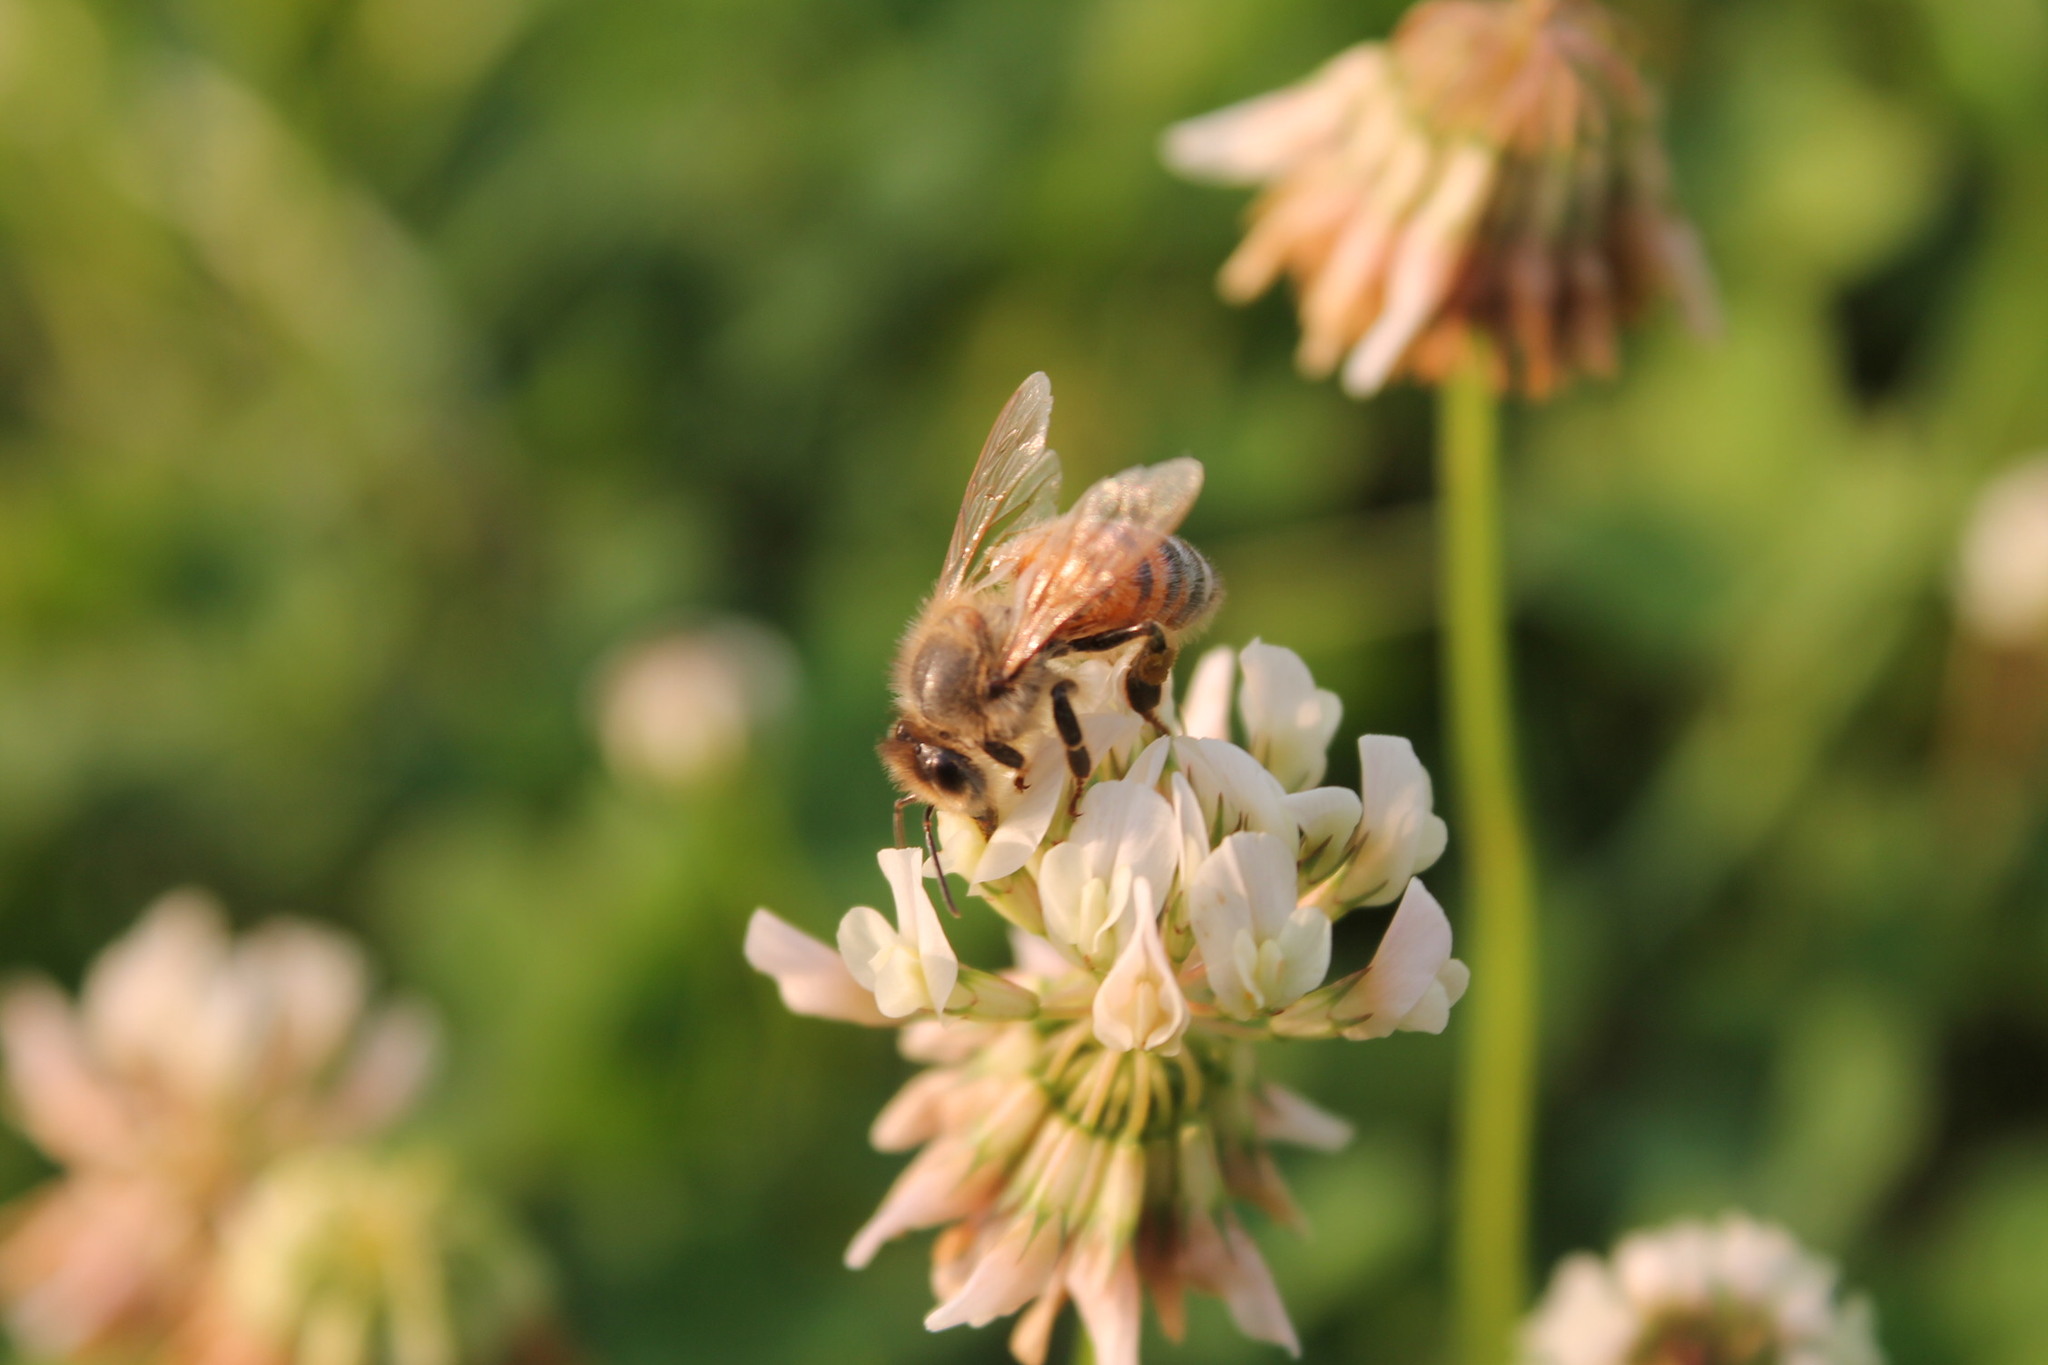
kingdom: Animalia
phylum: Arthropoda
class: Insecta
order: Hymenoptera
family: Apidae
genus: Apis
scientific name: Apis mellifera
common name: Honey bee
